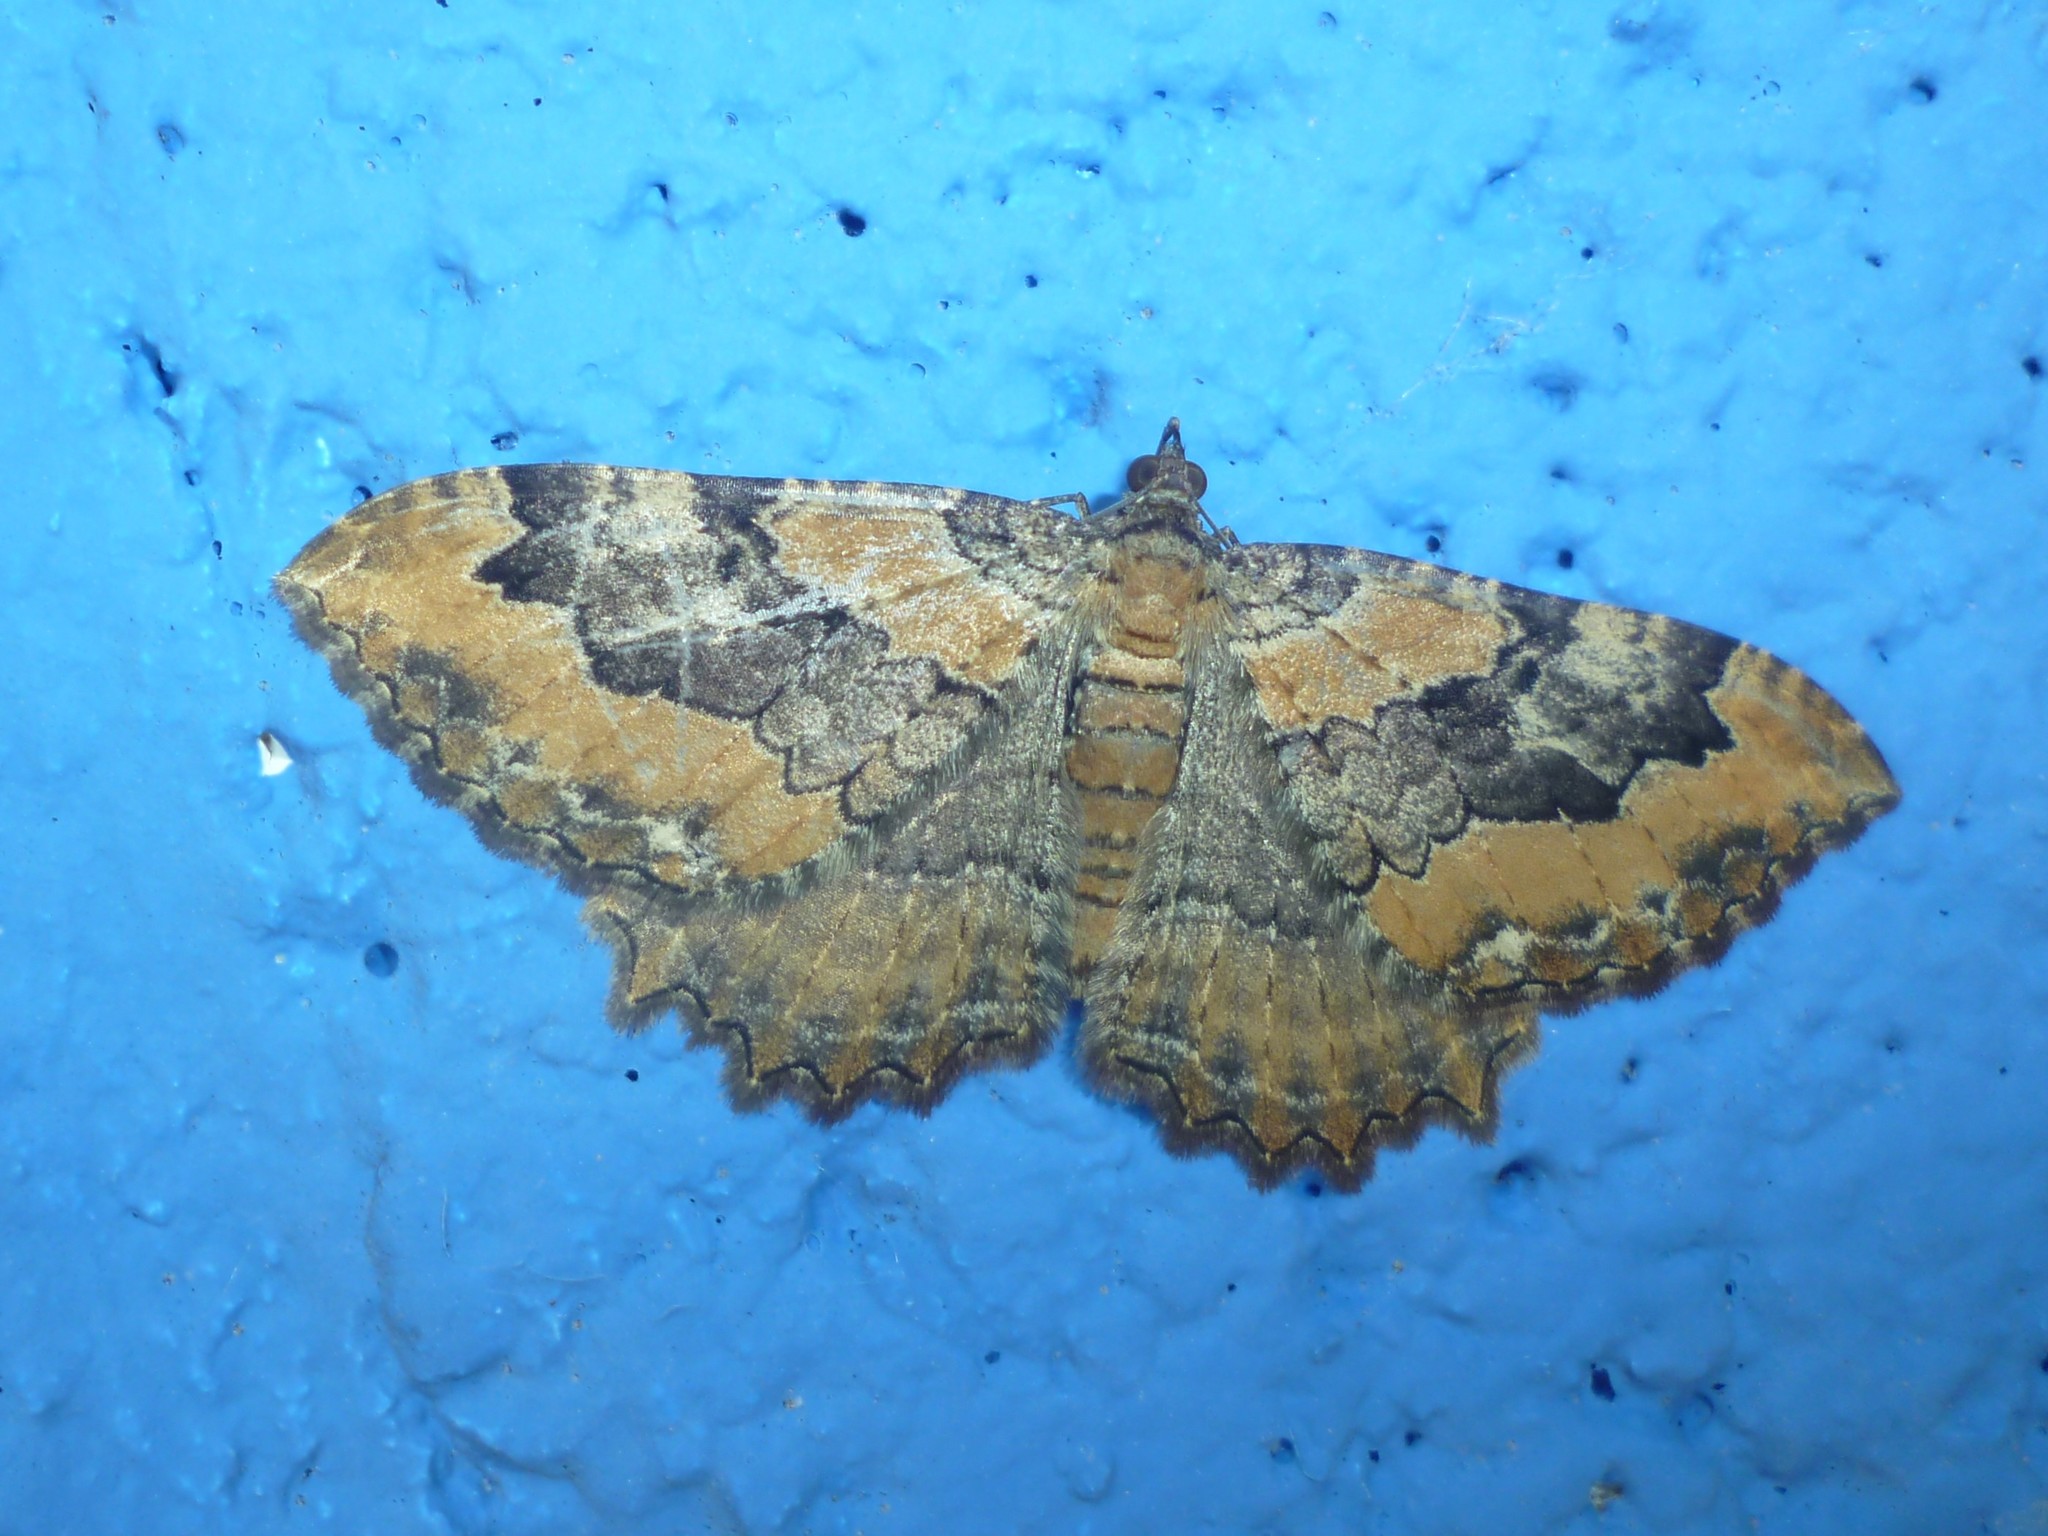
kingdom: Animalia
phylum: Arthropoda
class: Insecta
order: Lepidoptera
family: Geometridae
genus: Rheumaptera
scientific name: Rheumaptera
